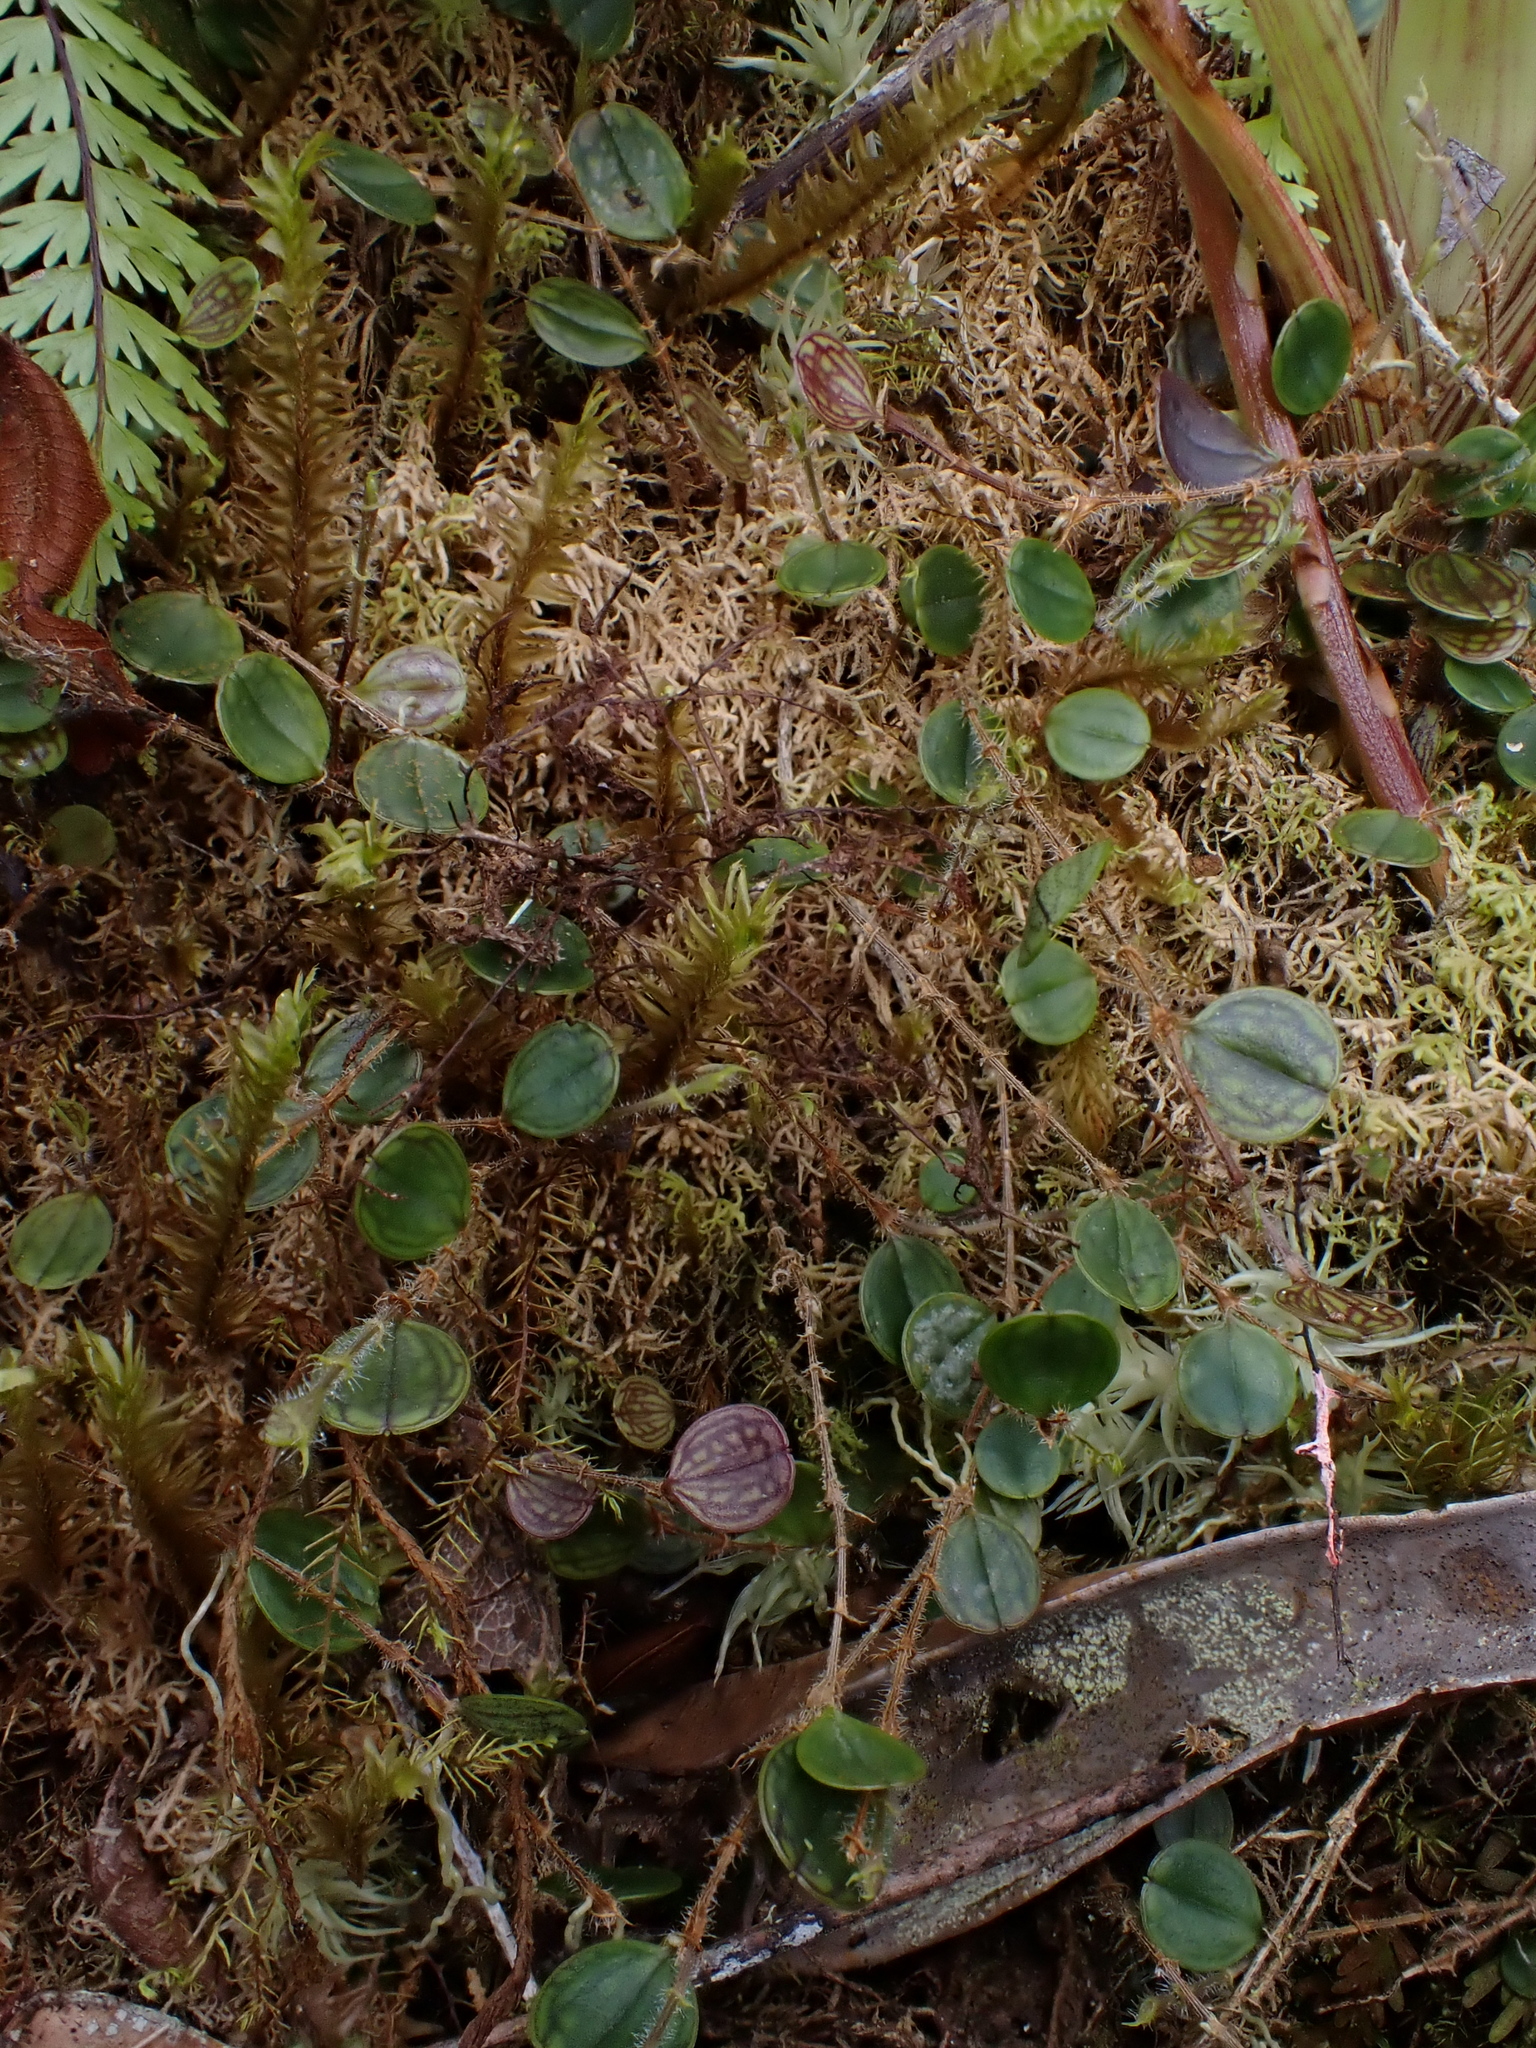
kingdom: Plantae
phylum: Tracheophyta
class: Liliopsida
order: Asparagales
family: Orchidaceae
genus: Gravendeelia
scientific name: Gravendeelia chamaelepanthes
